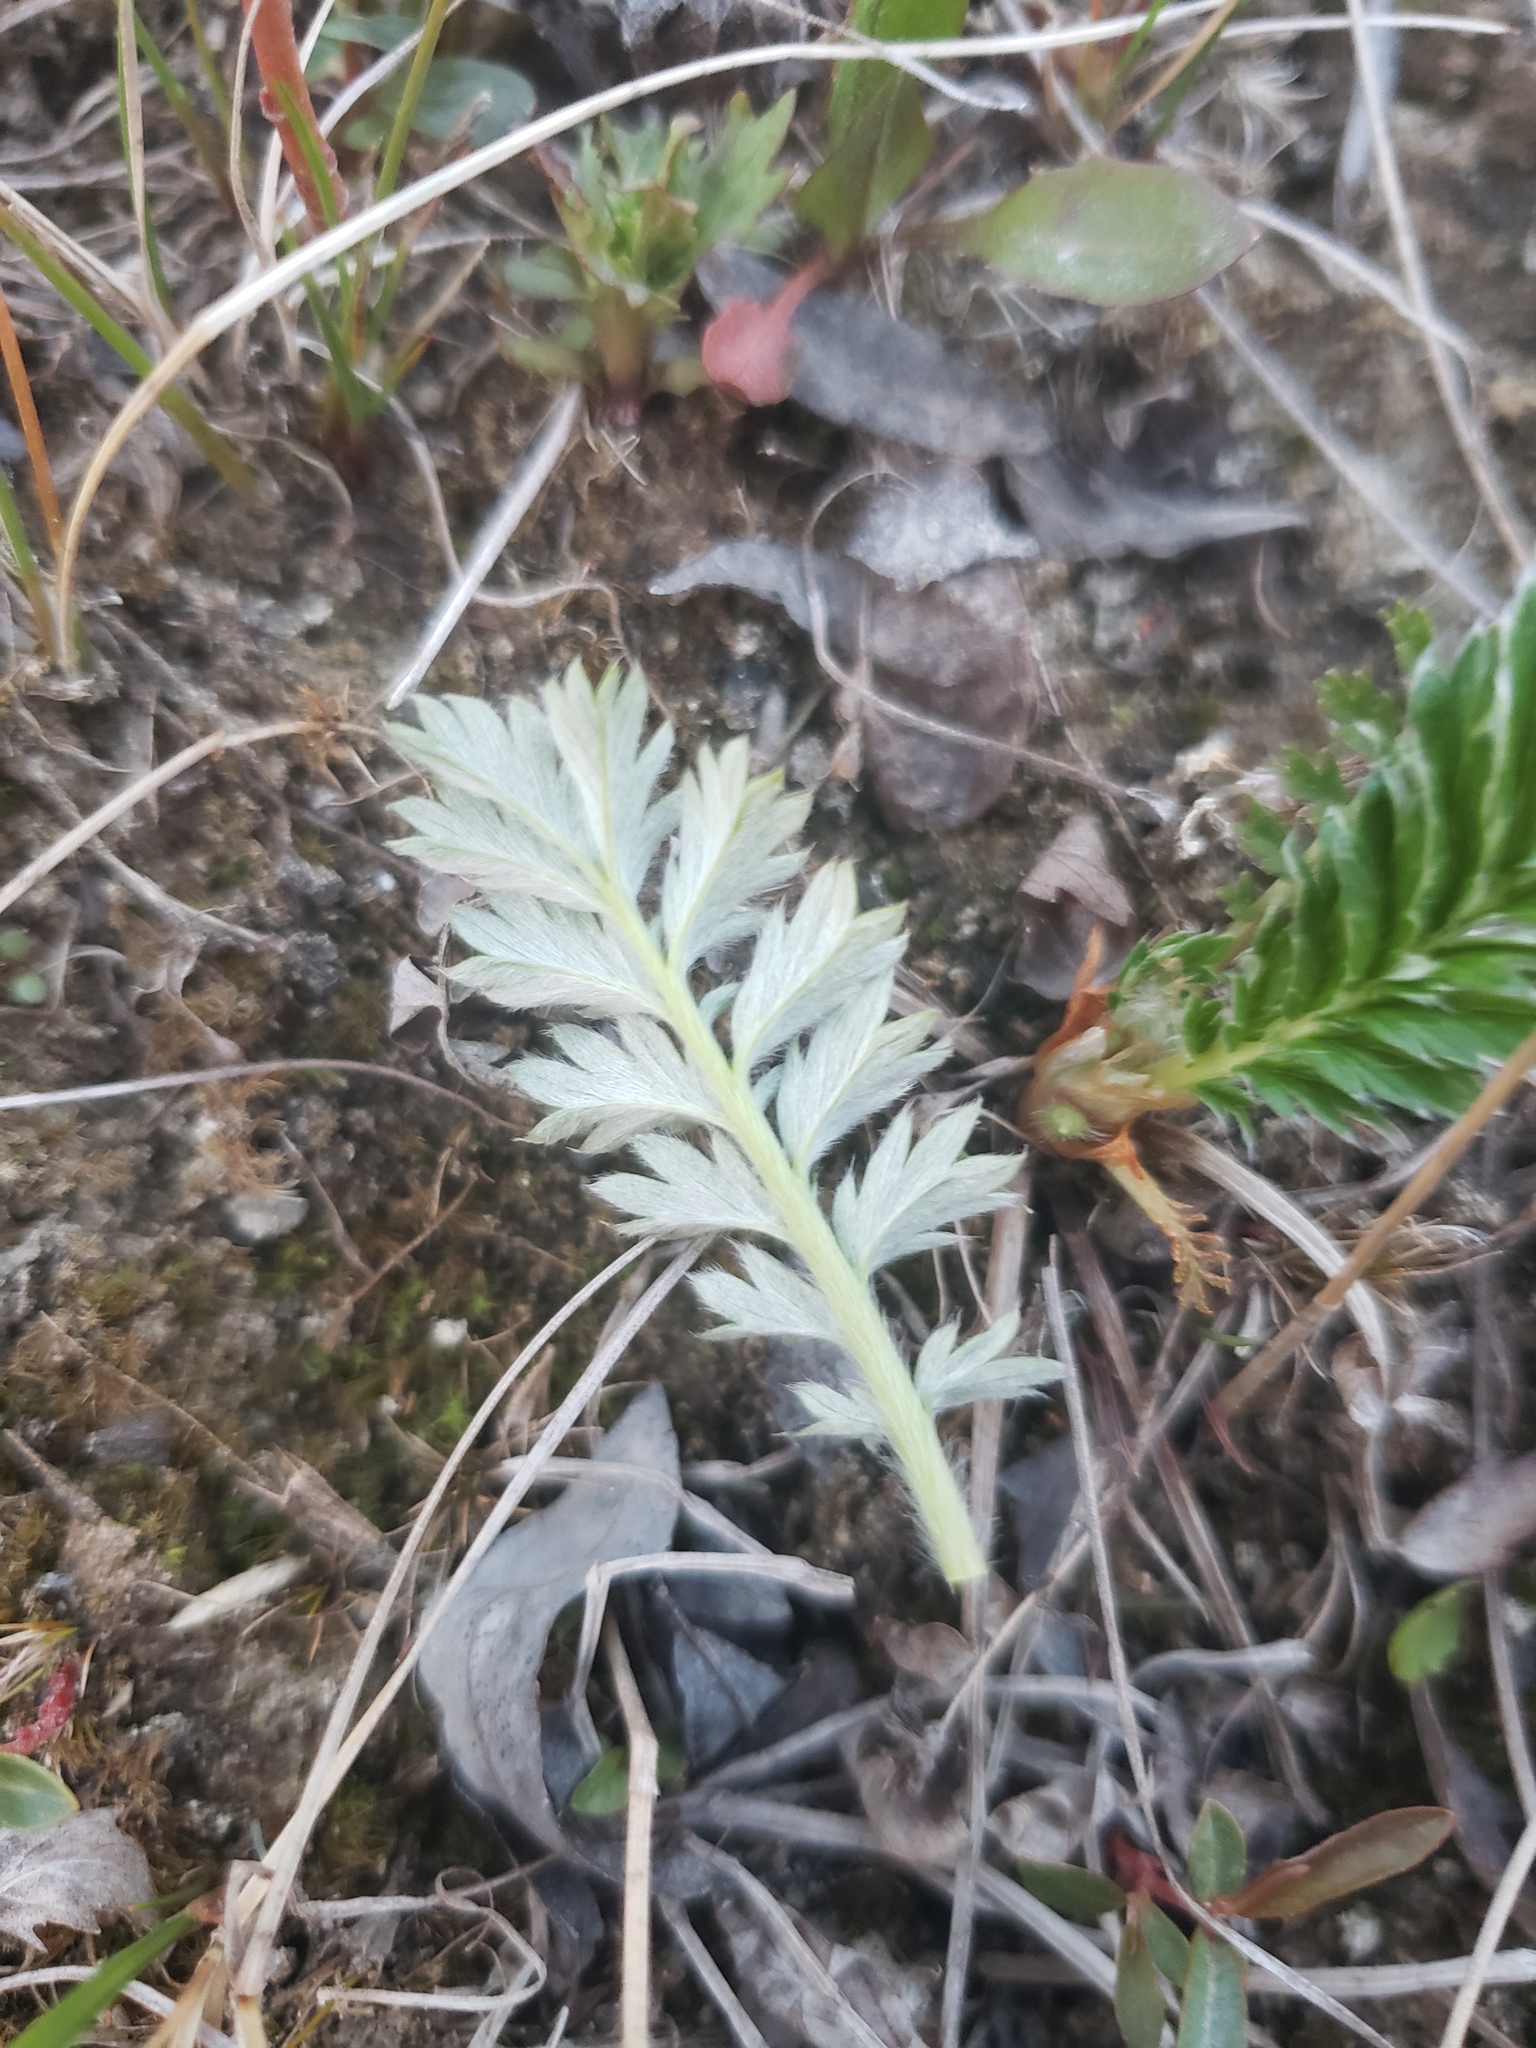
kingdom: Plantae
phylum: Tracheophyta
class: Magnoliopsida
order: Rosales
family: Rosaceae
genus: Argentina
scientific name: Argentina anserina
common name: Common silverweed
